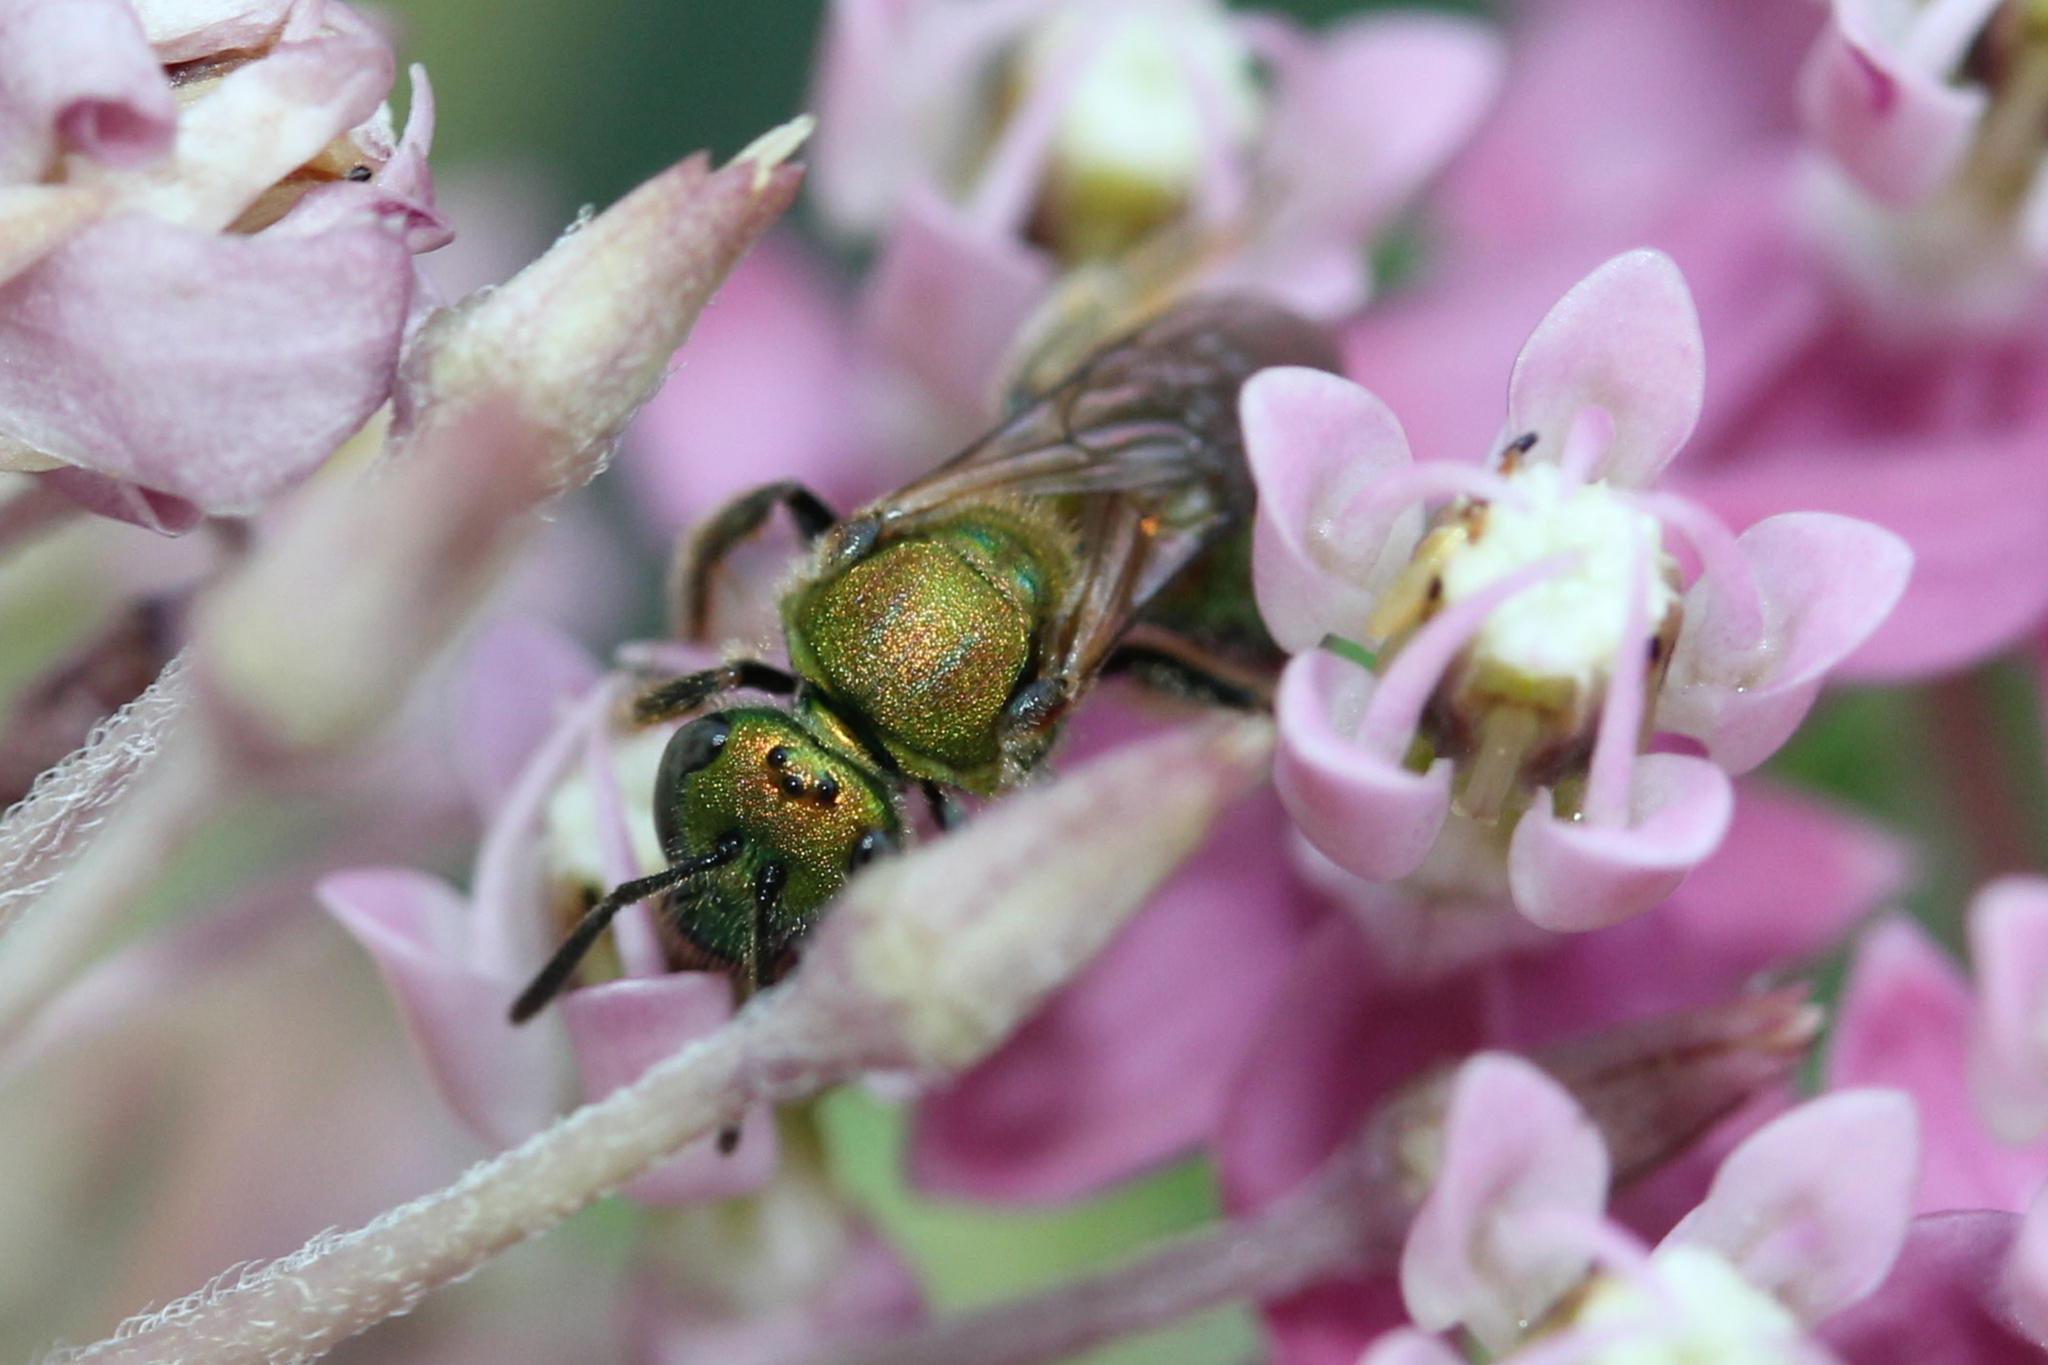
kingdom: Animalia
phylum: Arthropoda
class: Insecta
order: Hymenoptera
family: Halictidae
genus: Augochlora
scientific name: Augochlora pura
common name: Pure green sweat bee
